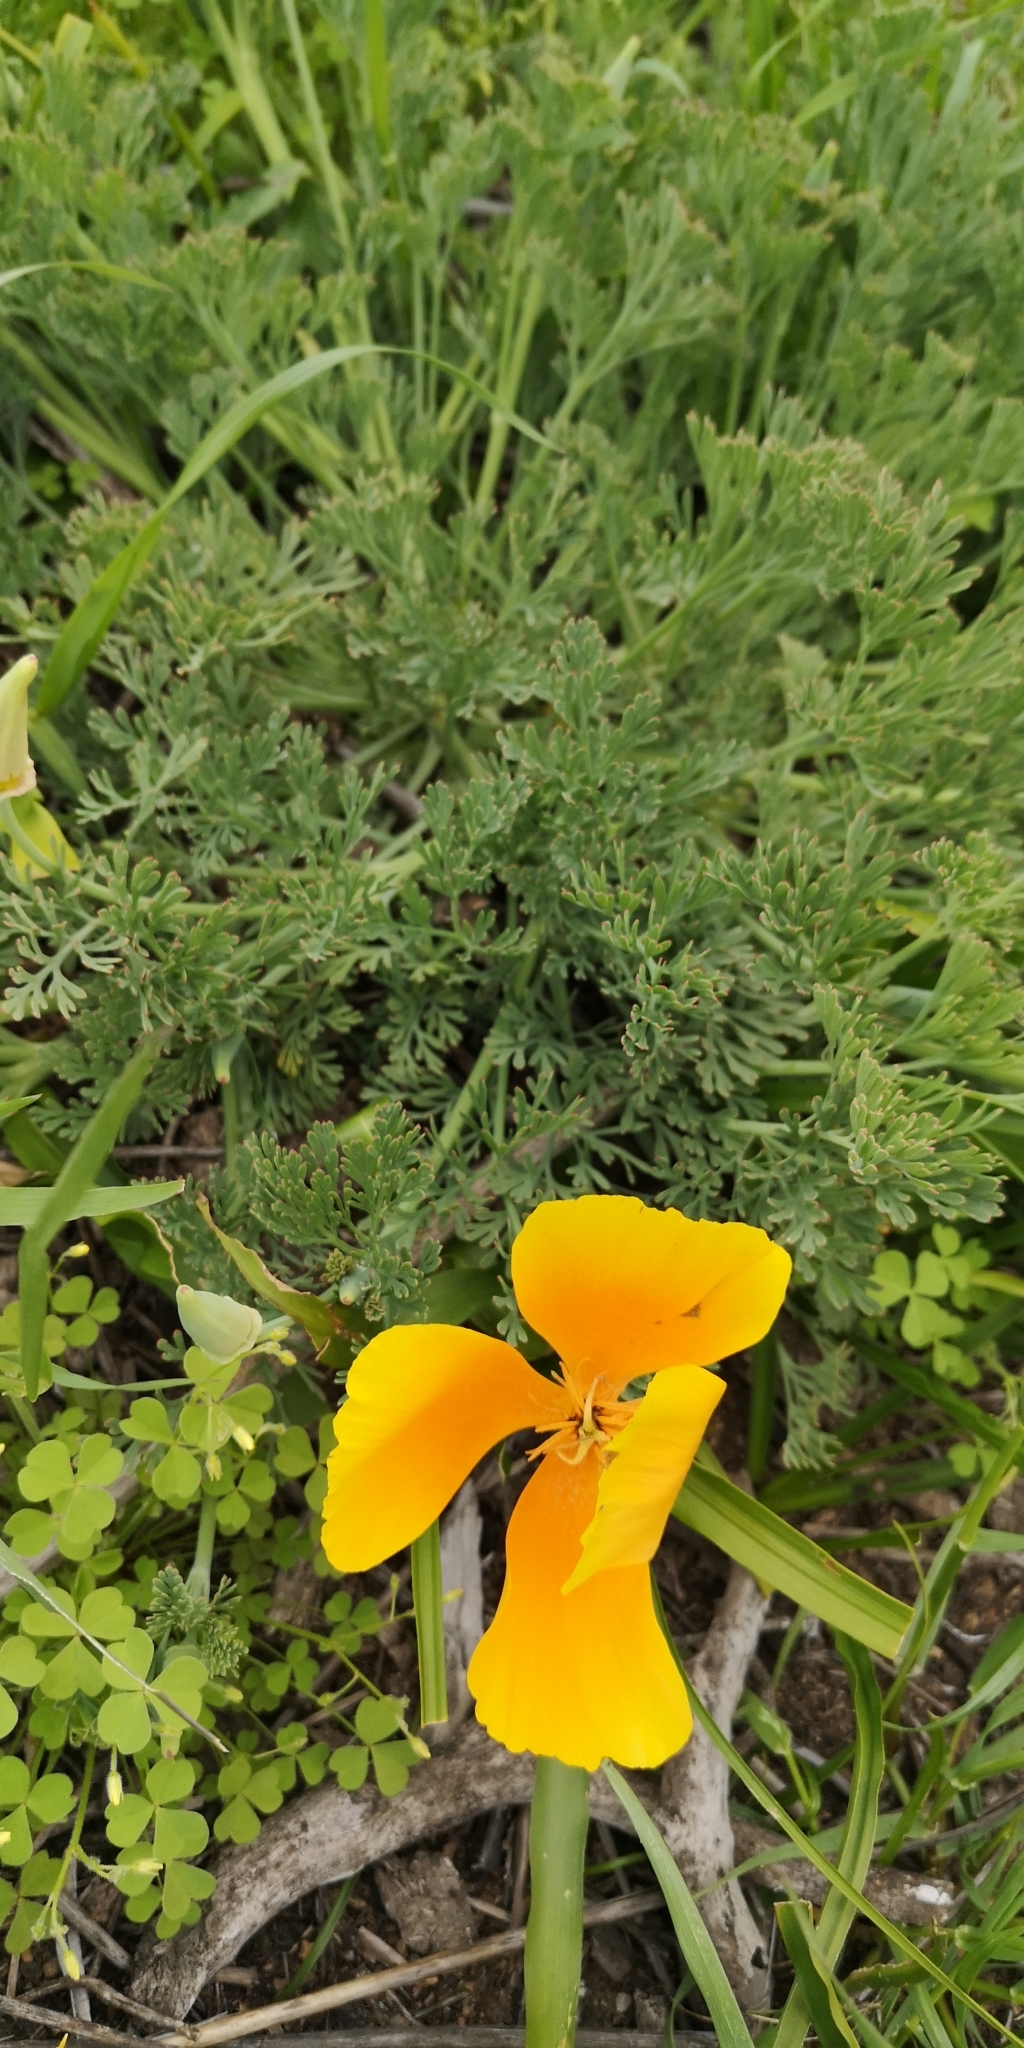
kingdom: Plantae
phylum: Tracheophyta
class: Magnoliopsida
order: Ranunculales
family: Papaveraceae
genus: Eschscholzia
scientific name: Eschscholzia californica
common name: California poppy
